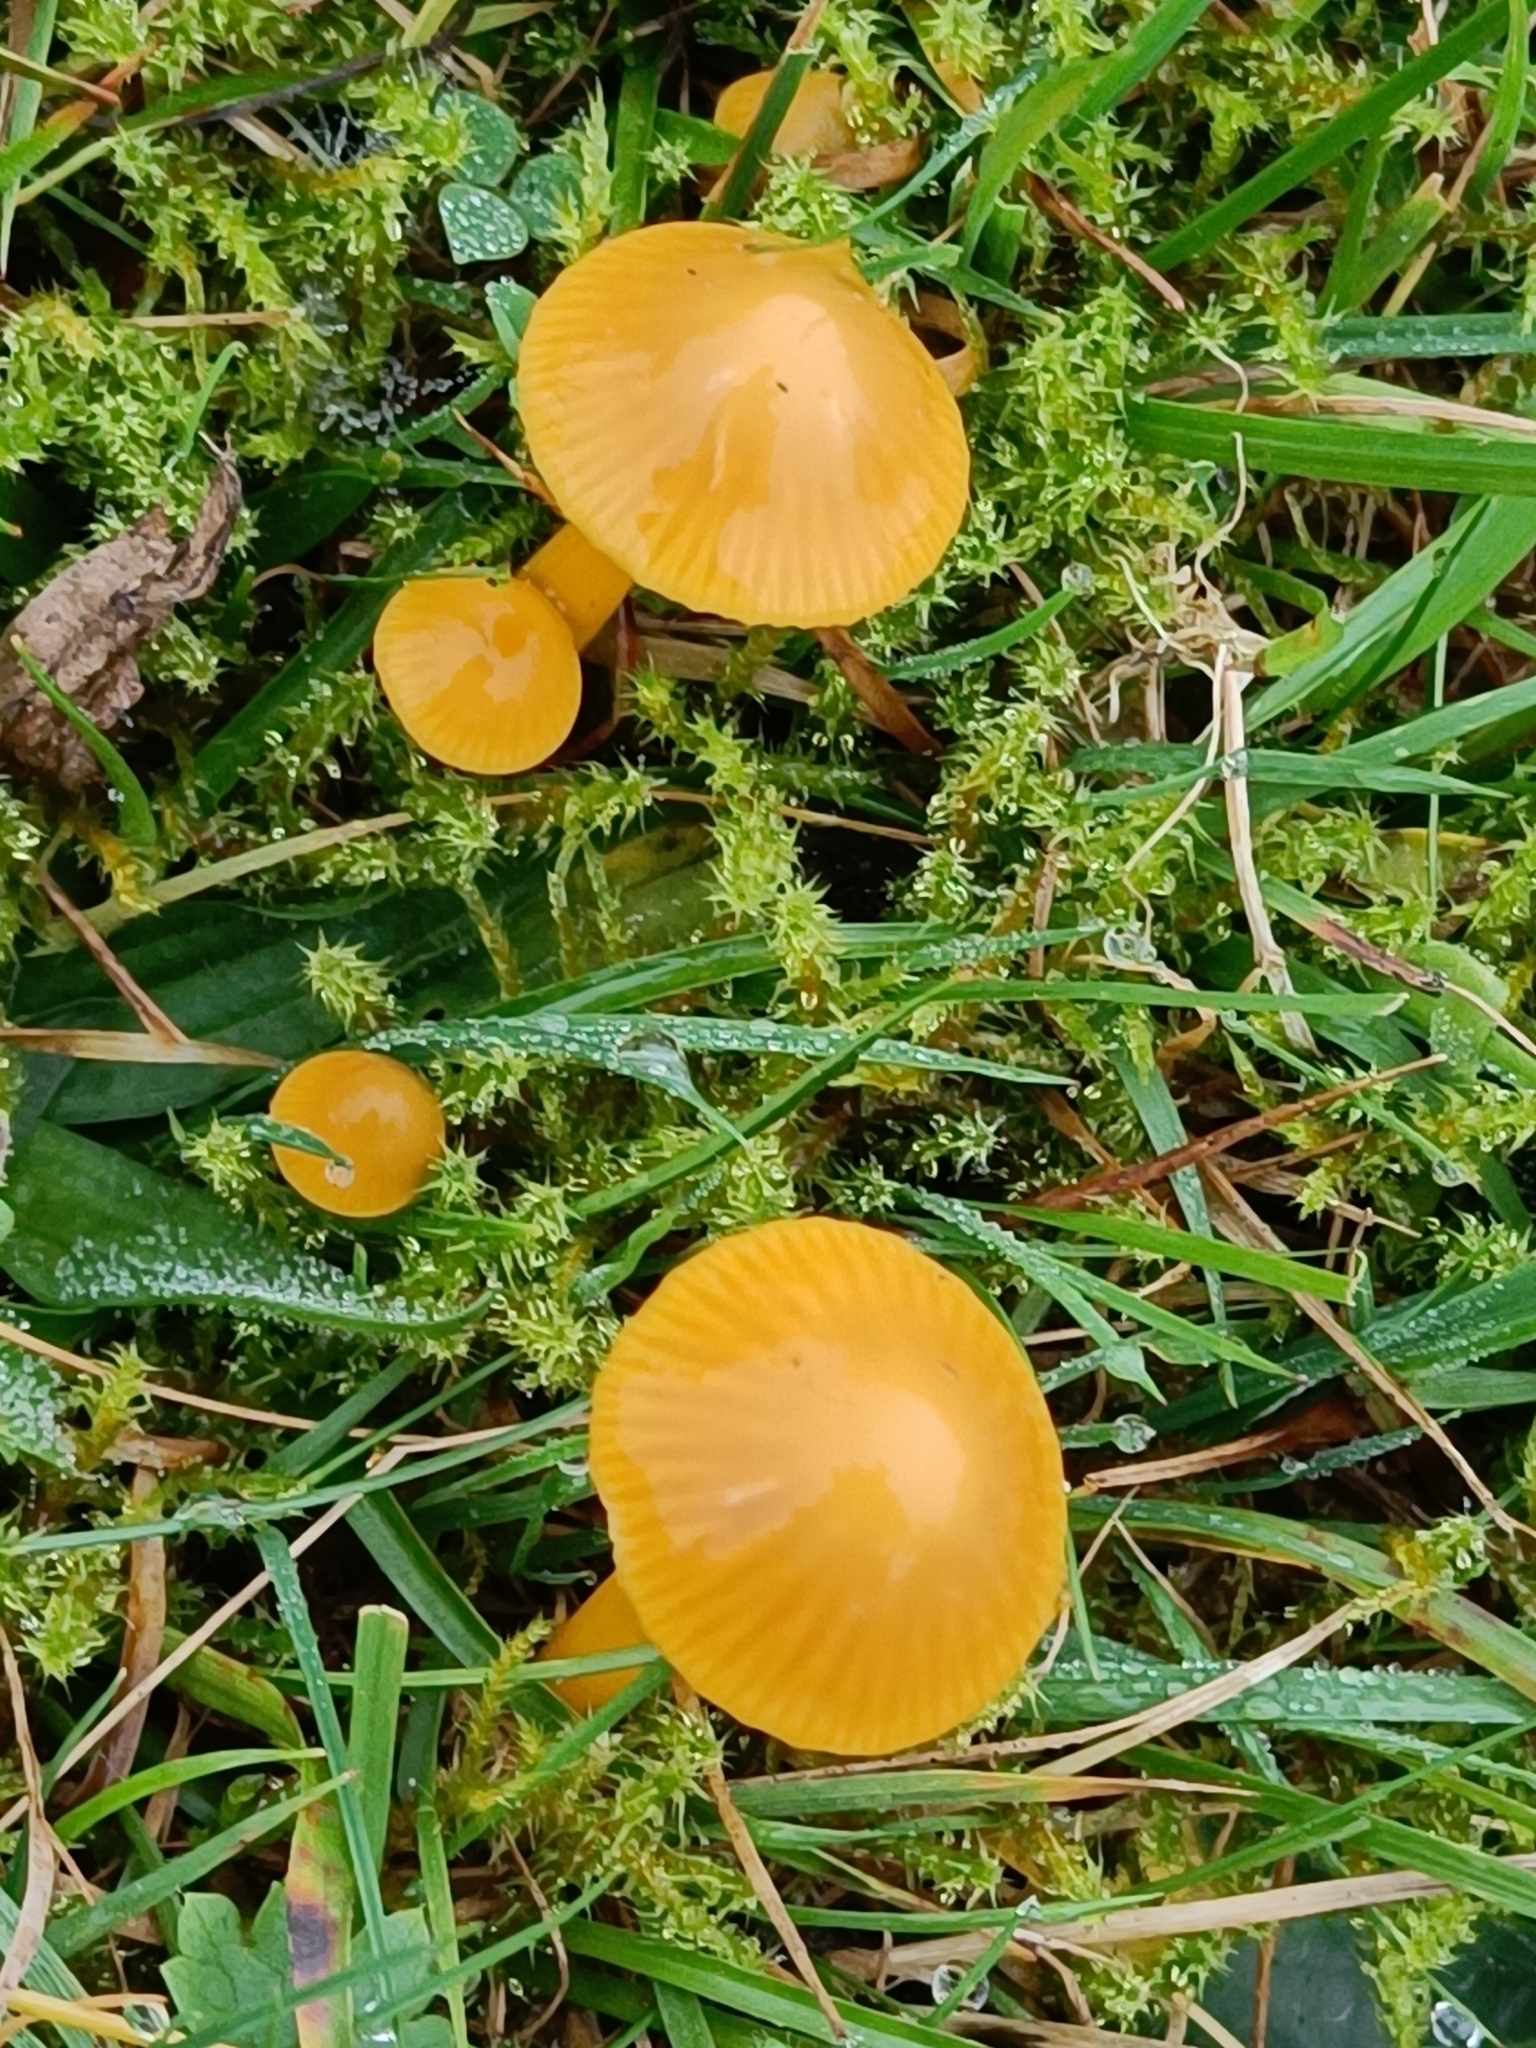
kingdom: Fungi
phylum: Basidiomycota
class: Agaricomycetes
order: Agaricales
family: Hygrophoraceae
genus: Gliophorus
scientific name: Gliophorus psittacinus
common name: Parrot wax-cap
